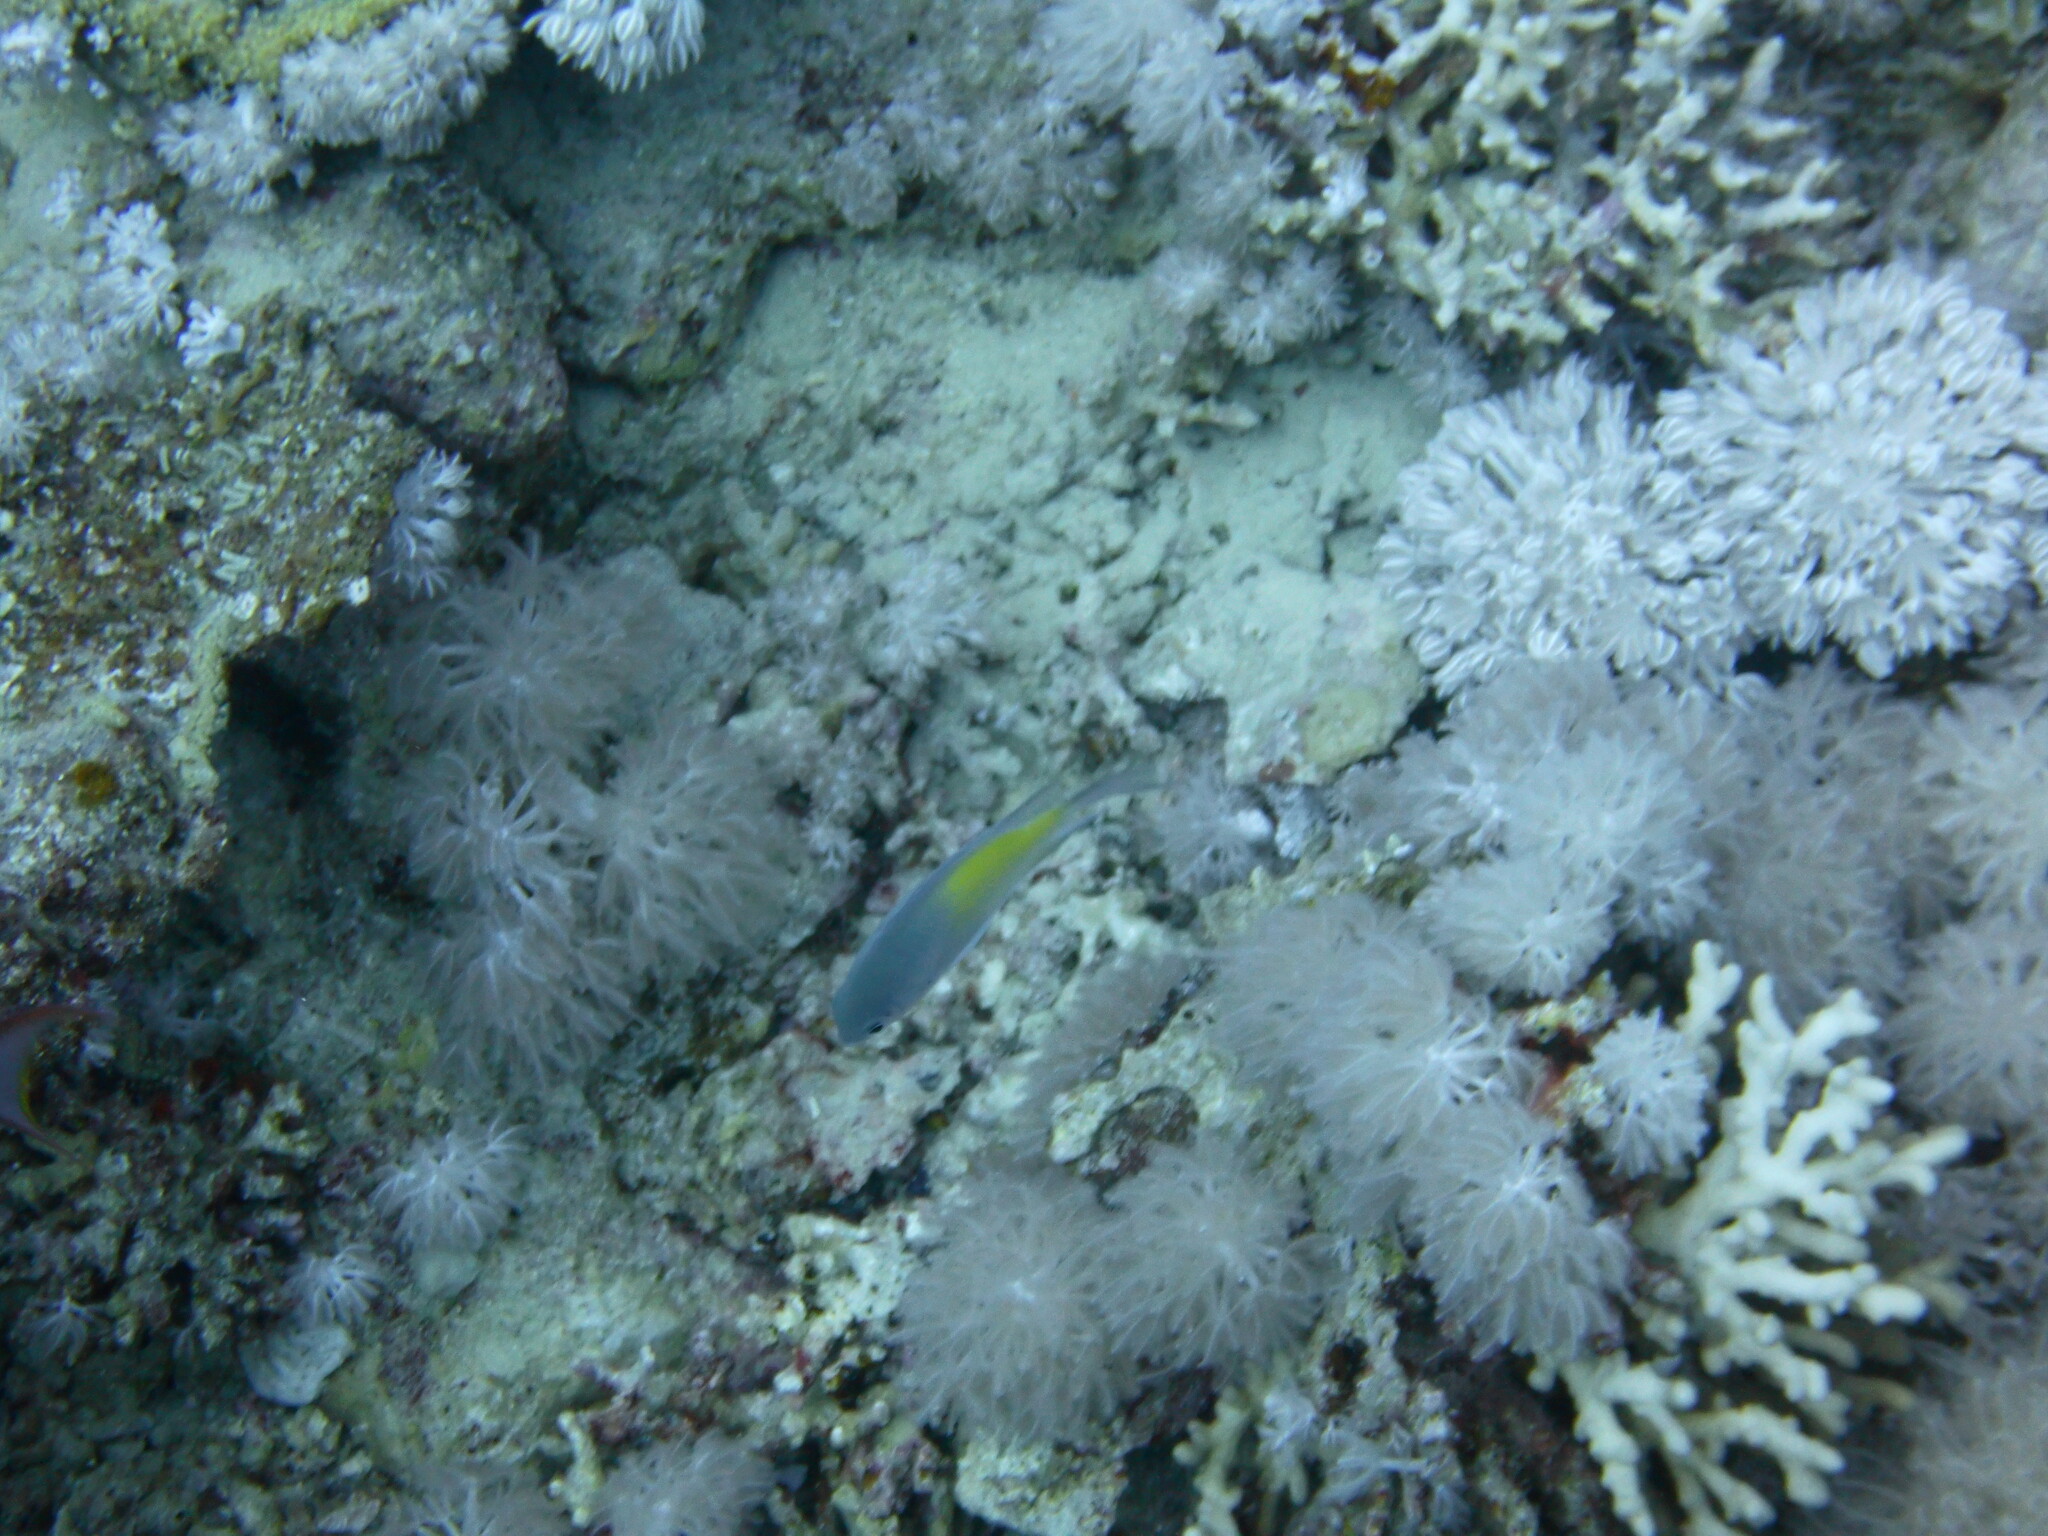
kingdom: Animalia
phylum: Chordata
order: Perciformes
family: Pomacentridae
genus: Amblyglyphidodon
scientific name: Amblyglyphidodon flavilatus
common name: Yellowfin damsel
